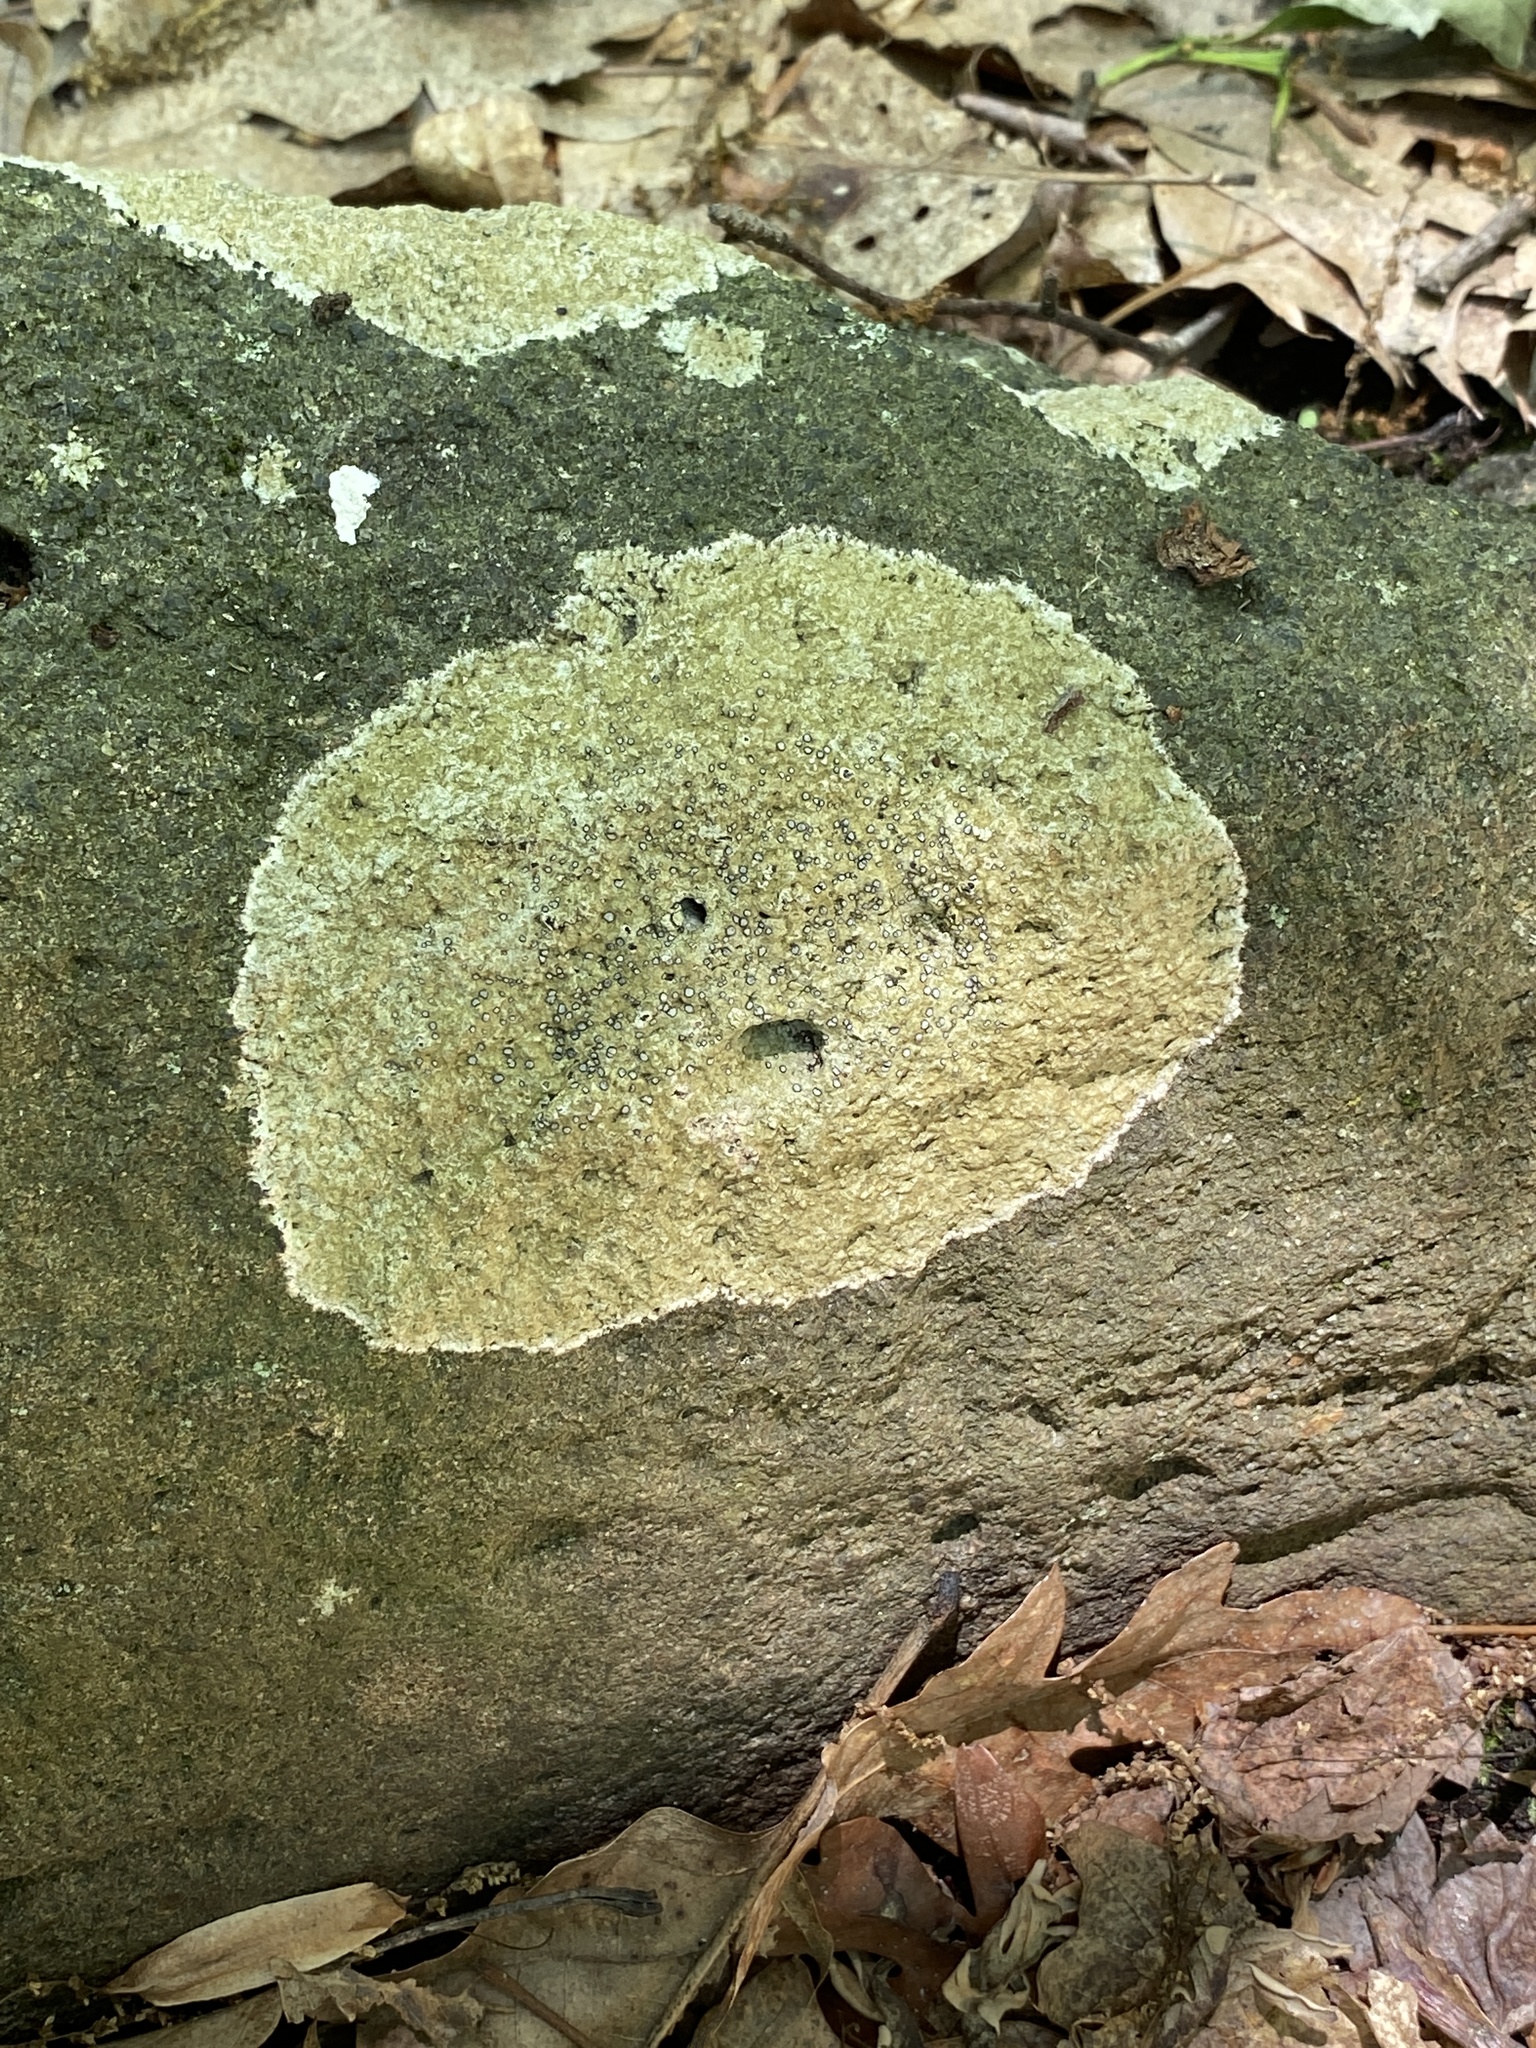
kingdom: Fungi
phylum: Ascomycota
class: Lecanoromycetes
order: Lecideales
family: Lecideaceae
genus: Porpidia
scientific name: Porpidia albocaerulescens
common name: Smokey-eyed boulder lichen
